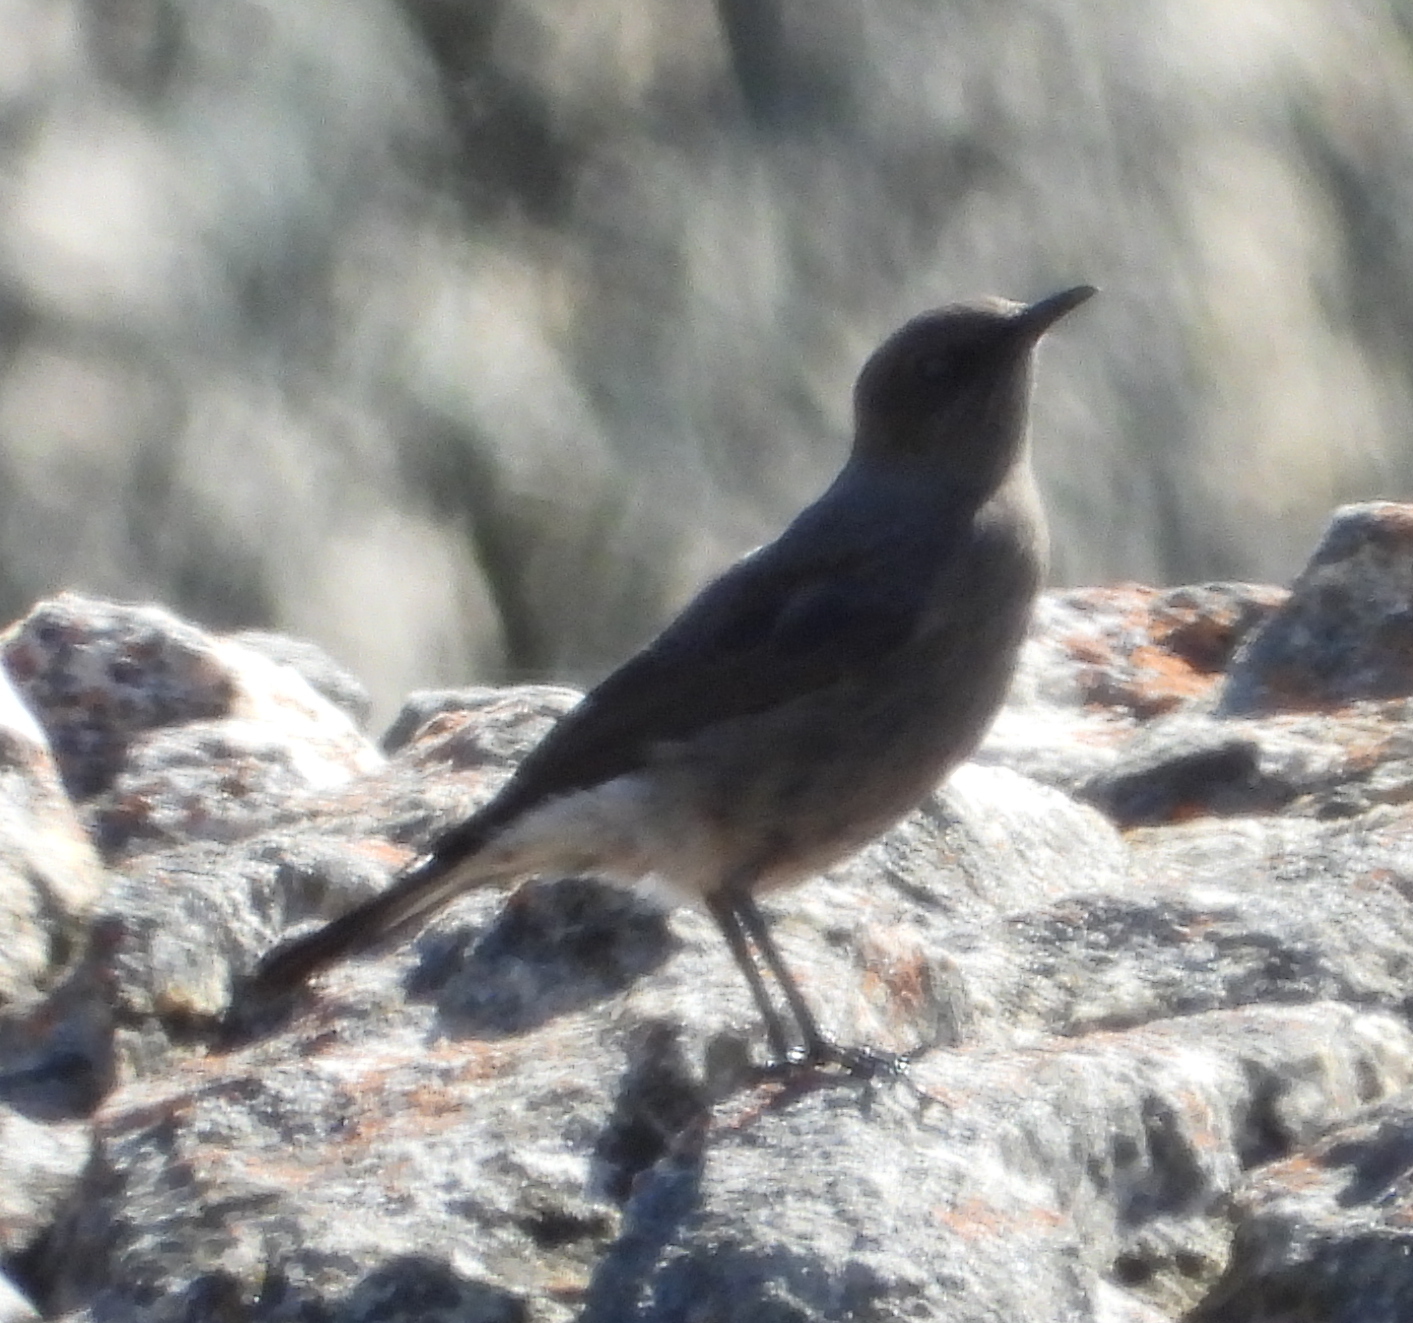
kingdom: Animalia
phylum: Chordata
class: Aves
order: Passeriformes
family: Muscicapidae
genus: Oenanthe
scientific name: Oenanthe monticola
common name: Mountain wheatear
